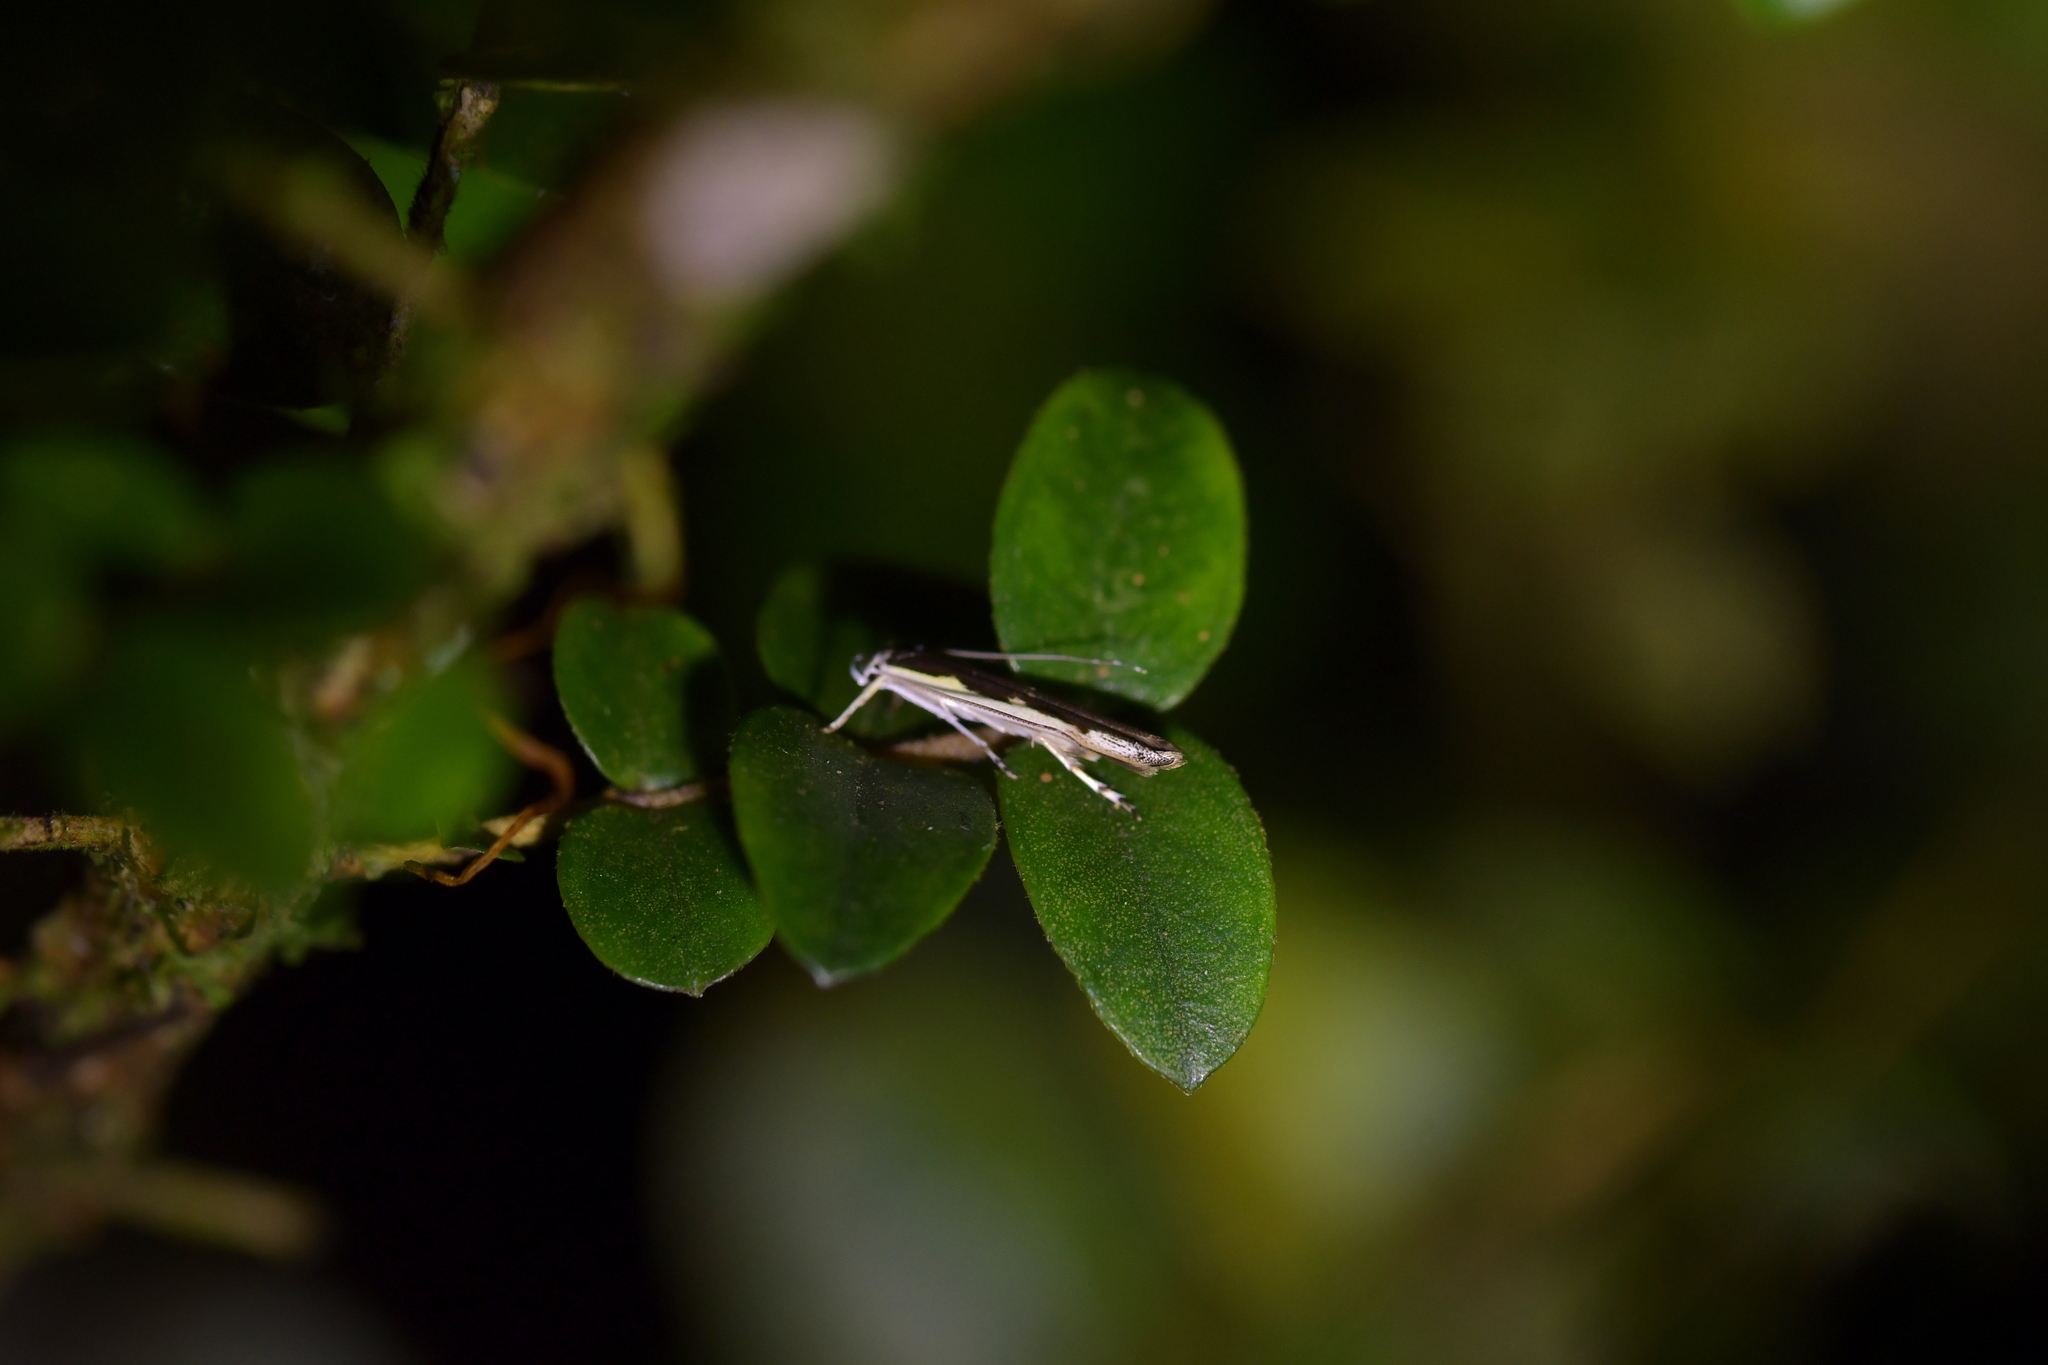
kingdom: Animalia
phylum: Arthropoda
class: Insecta
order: Lepidoptera
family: Roeslerstammiidae
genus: Vanicela
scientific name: Vanicela disjunctella
